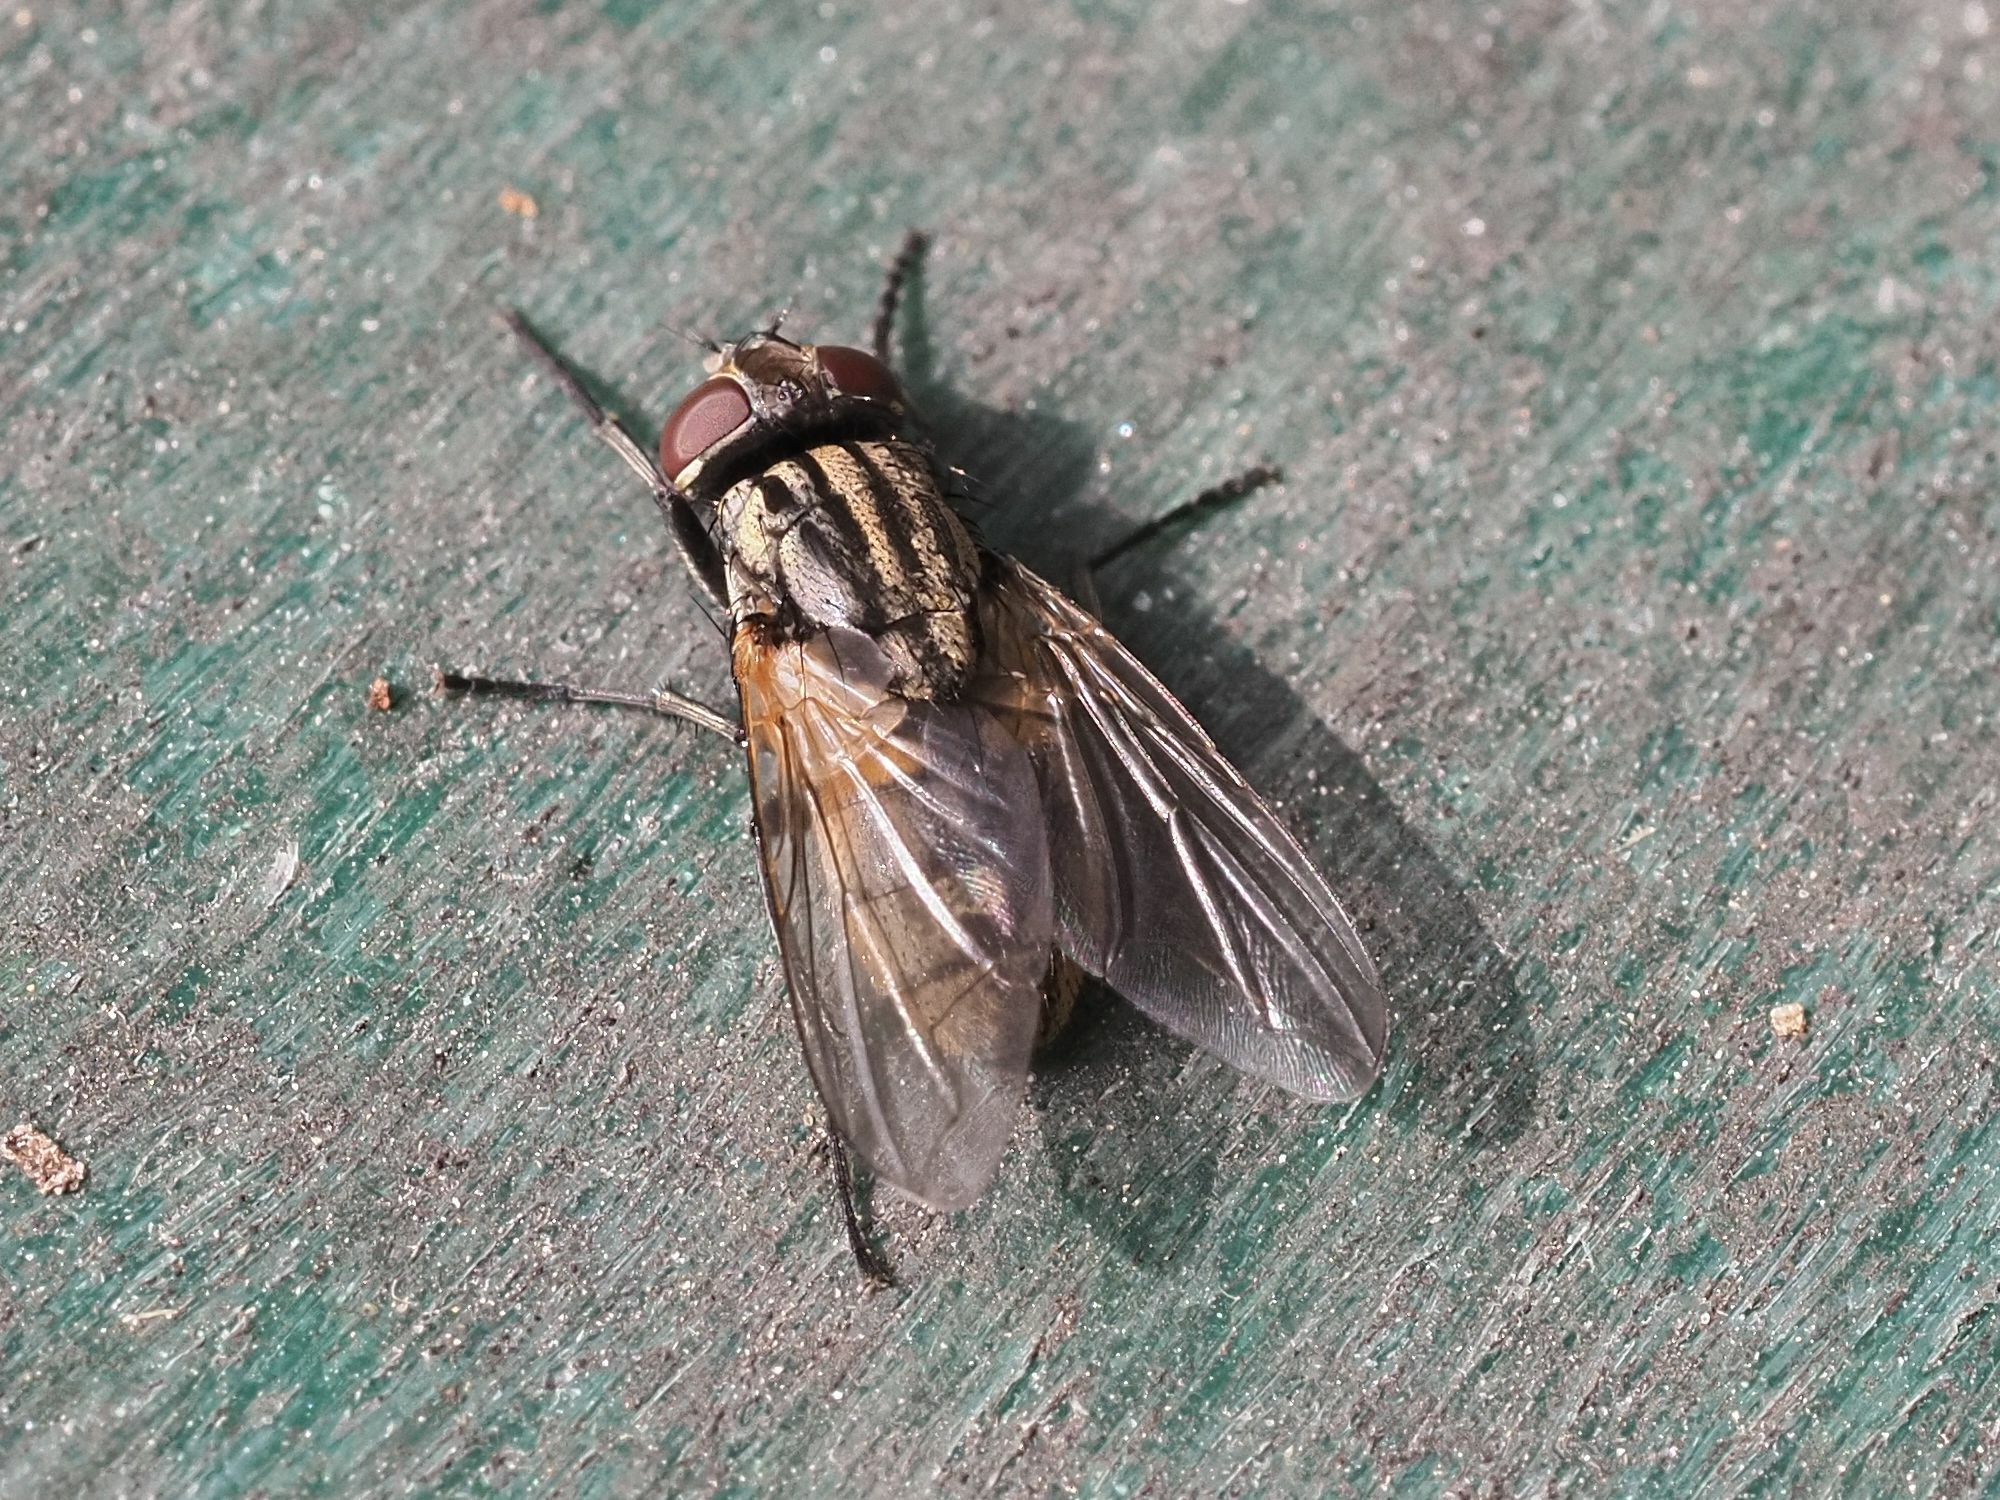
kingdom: Animalia
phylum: Arthropoda
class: Insecta
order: Diptera
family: Muscidae
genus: Musca
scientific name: Musca domestica
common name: House fly
